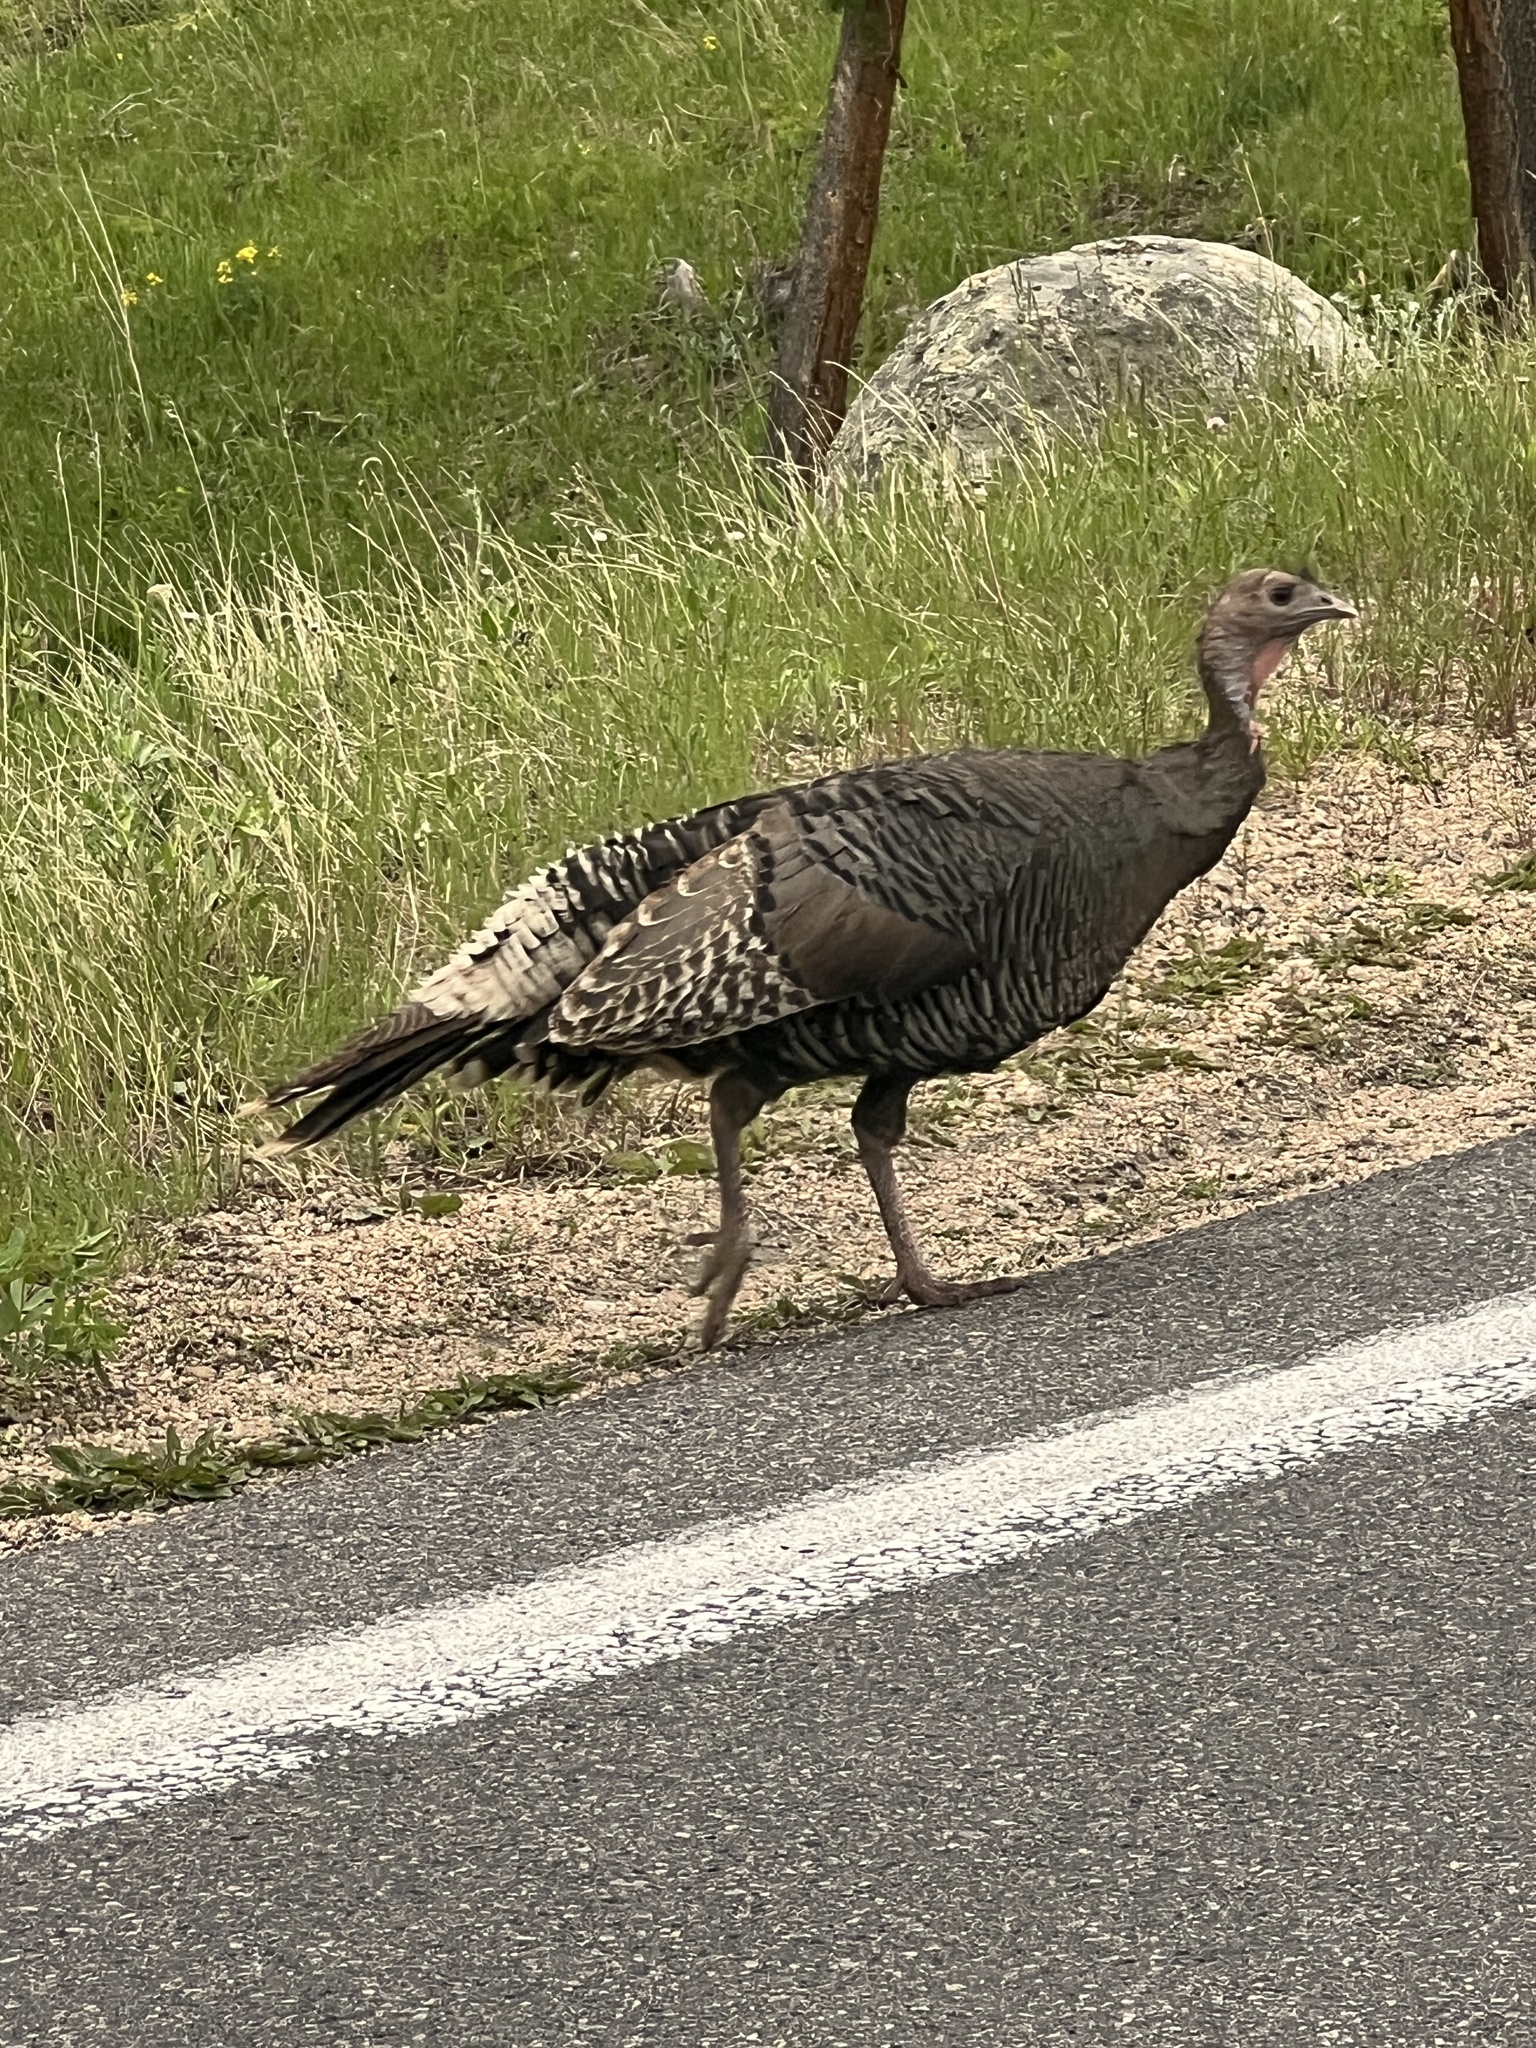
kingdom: Animalia
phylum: Chordata
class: Aves
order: Galliformes
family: Phasianidae
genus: Meleagris
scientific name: Meleagris gallopavo
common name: Wild turkey
